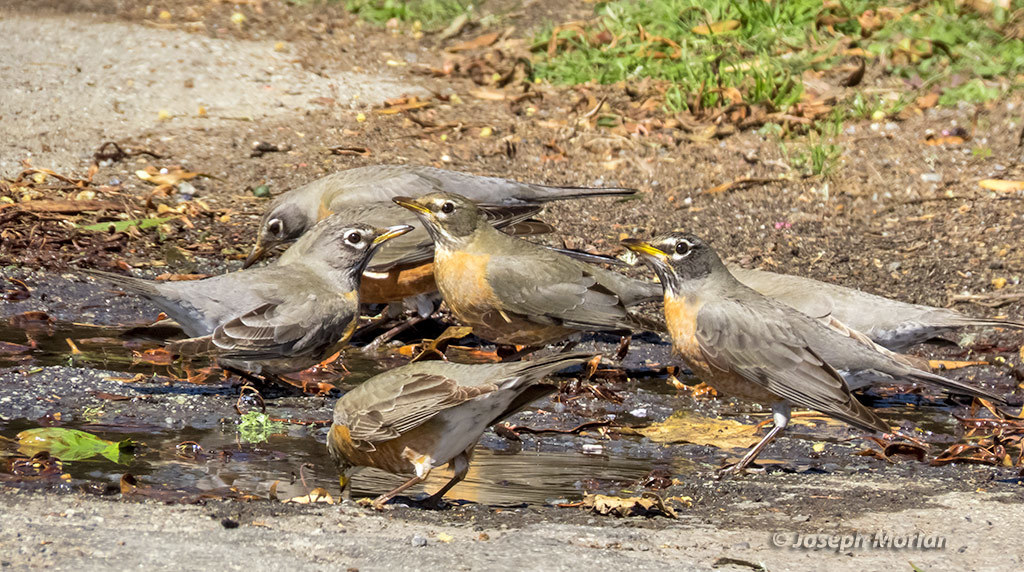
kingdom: Animalia
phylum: Chordata
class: Aves
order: Passeriformes
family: Turdidae
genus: Turdus
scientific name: Turdus migratorius
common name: American robin
